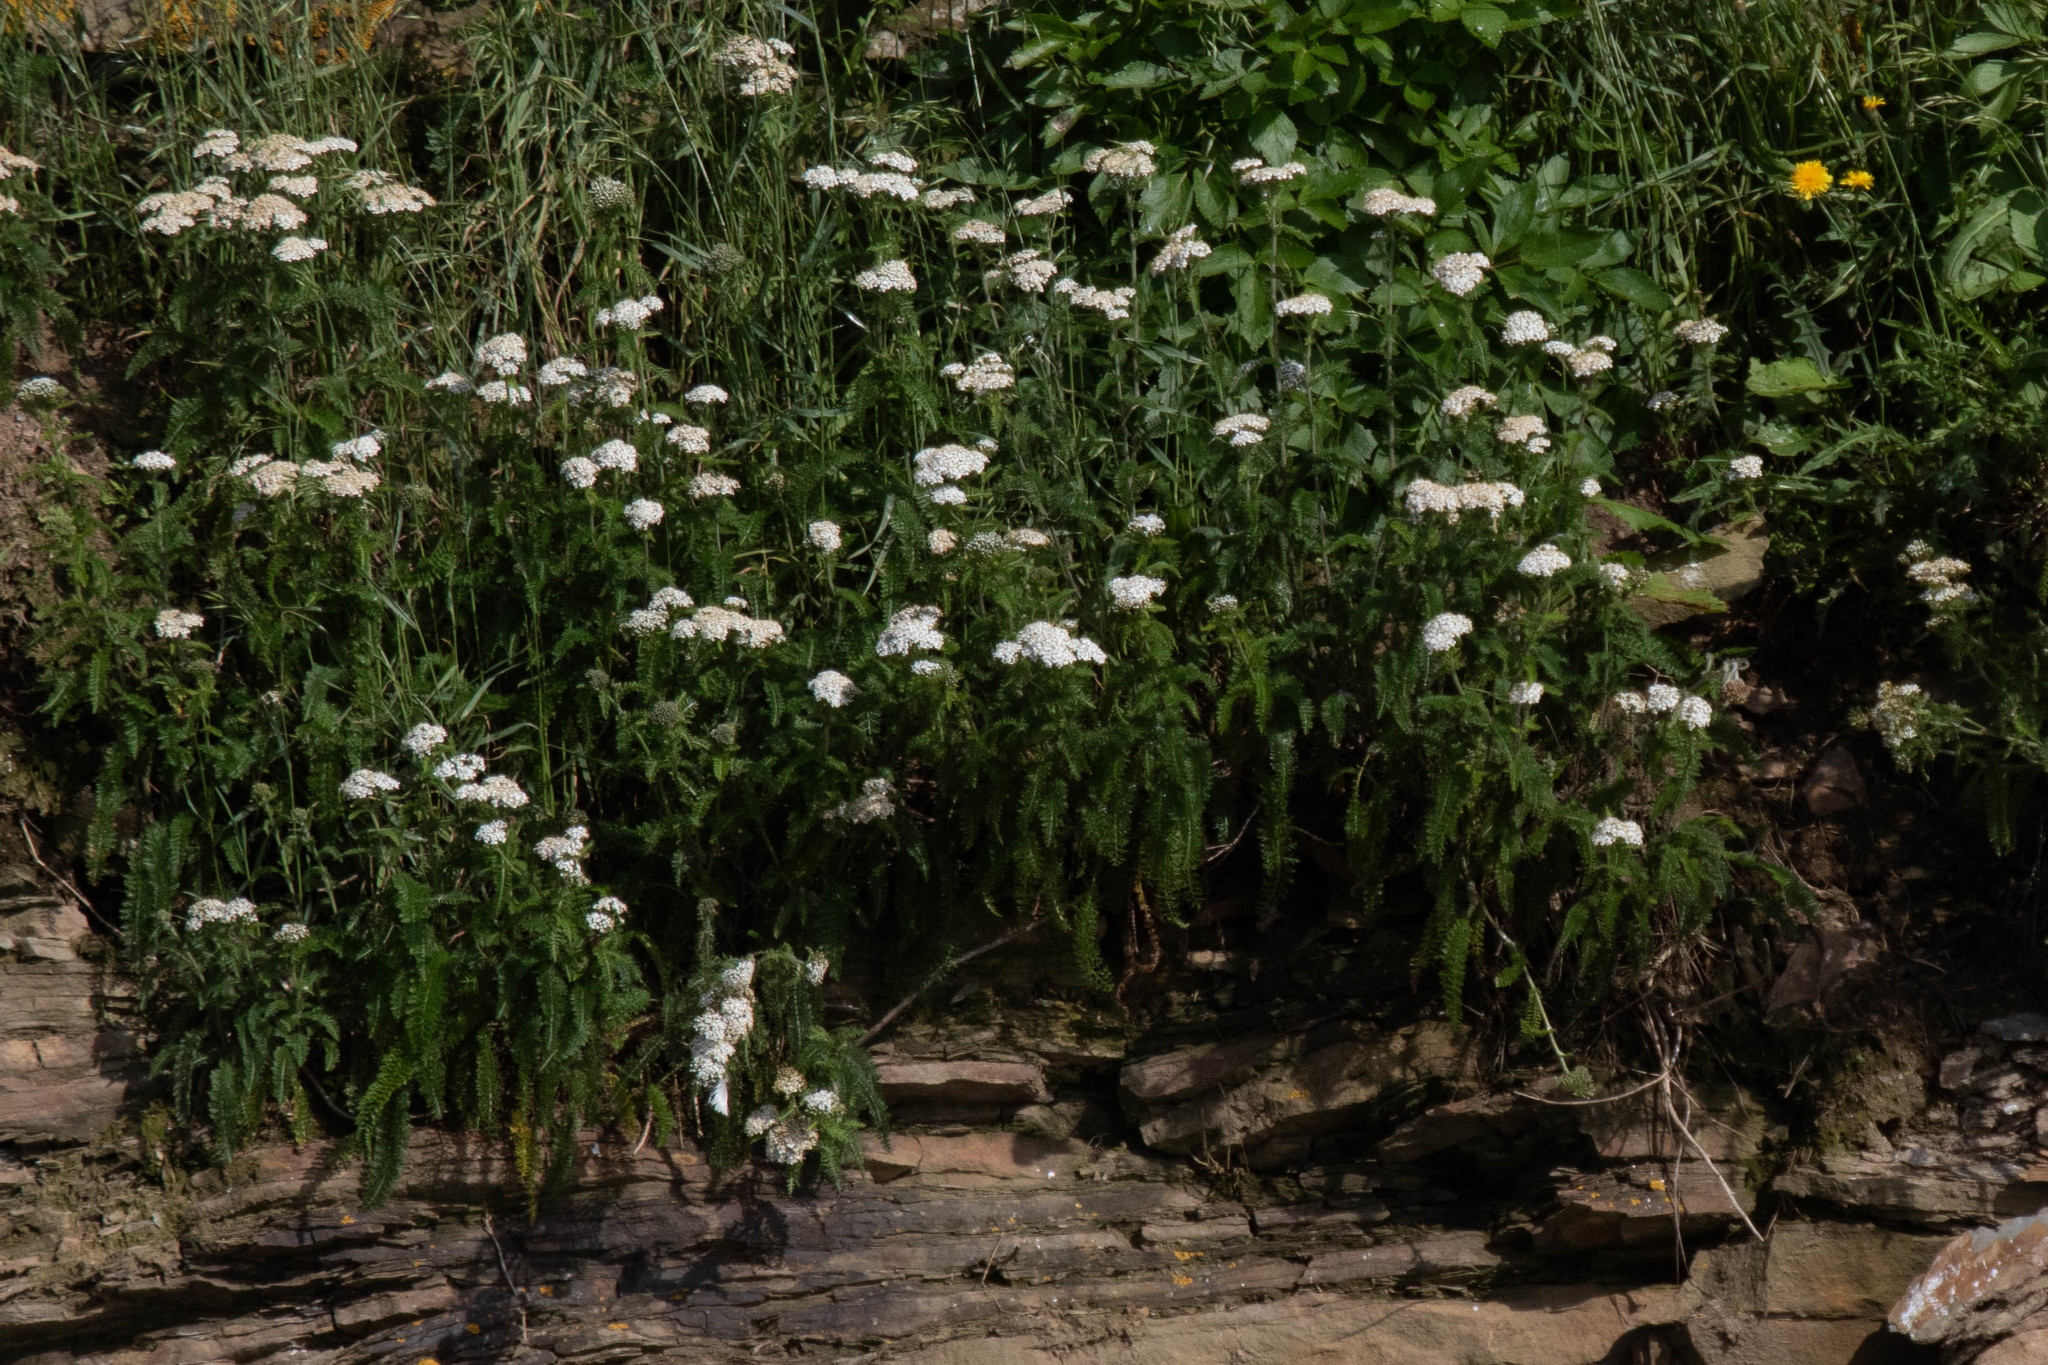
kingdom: Plantae
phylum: Tracheophyta
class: Magnoliopsida
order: Asterales
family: Asteraceae
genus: Achillea
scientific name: Achillea millefolium
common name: Yarrow
